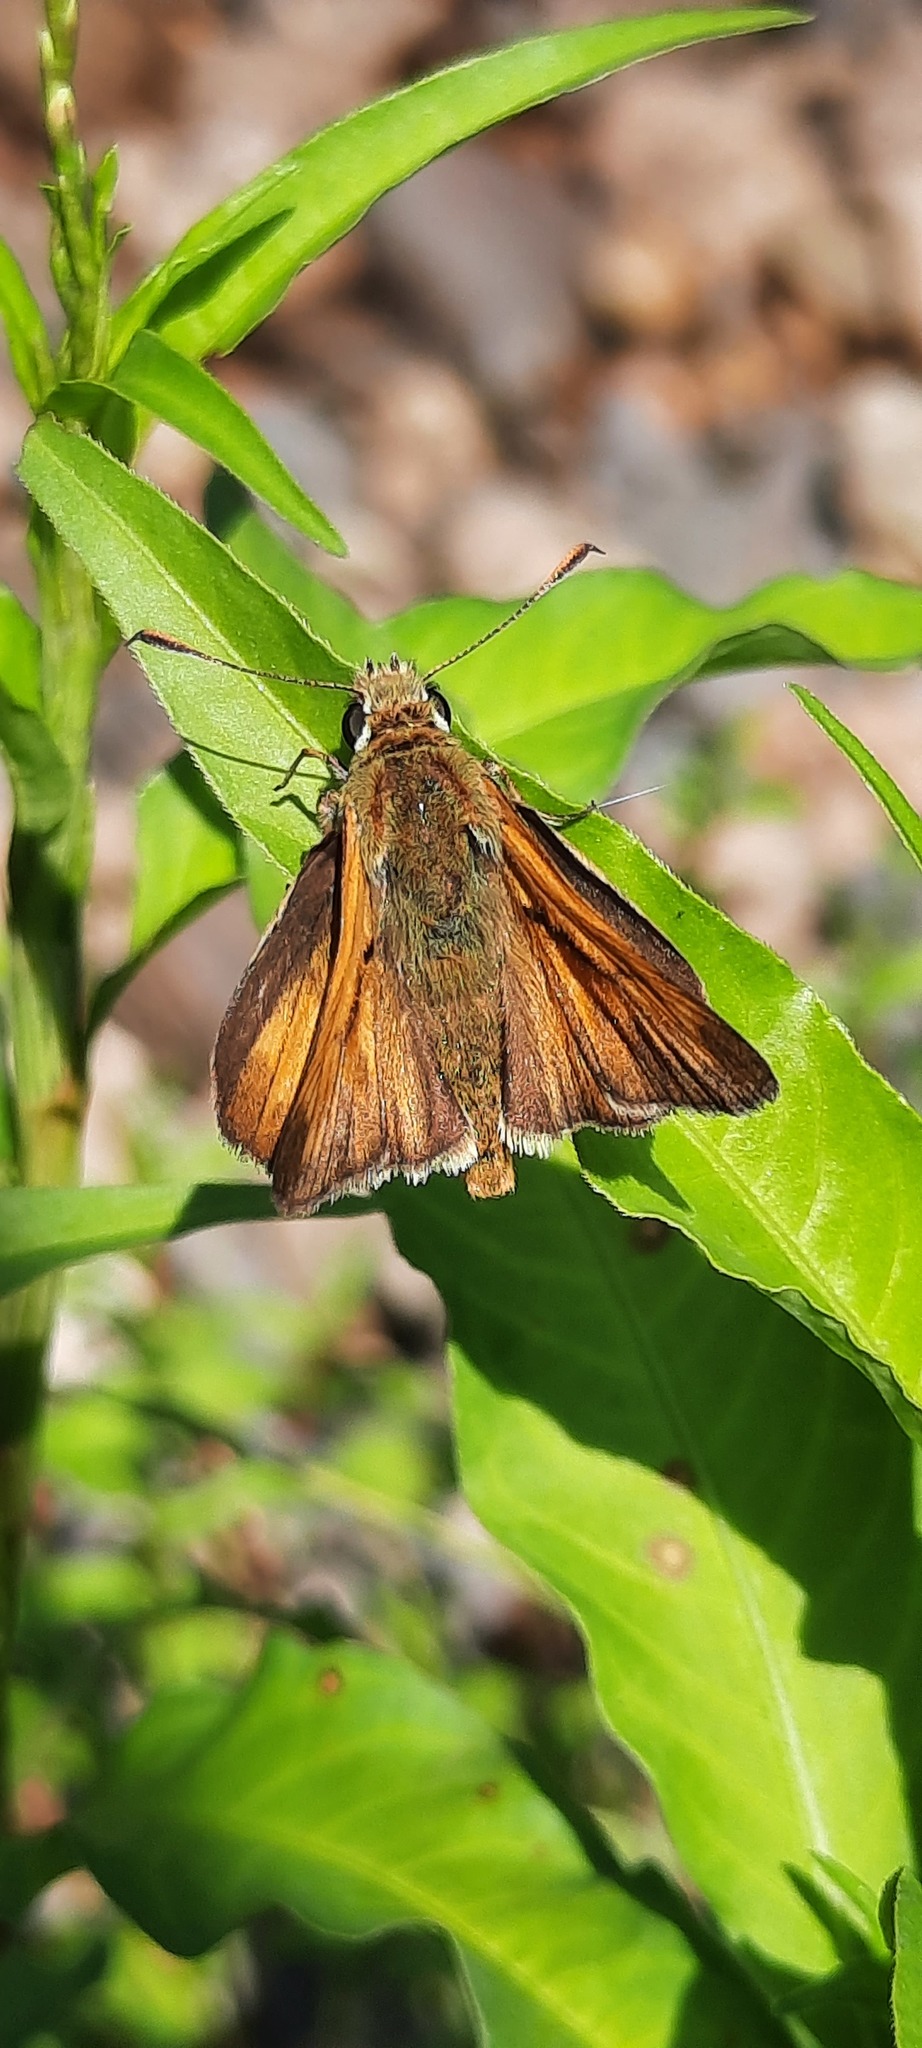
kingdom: Animalia
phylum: Arthropoda
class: Insecta
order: Lepidoptera
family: Hesperiidae
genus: Ochlodes
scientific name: Ochlodes venata
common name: Large skipper
